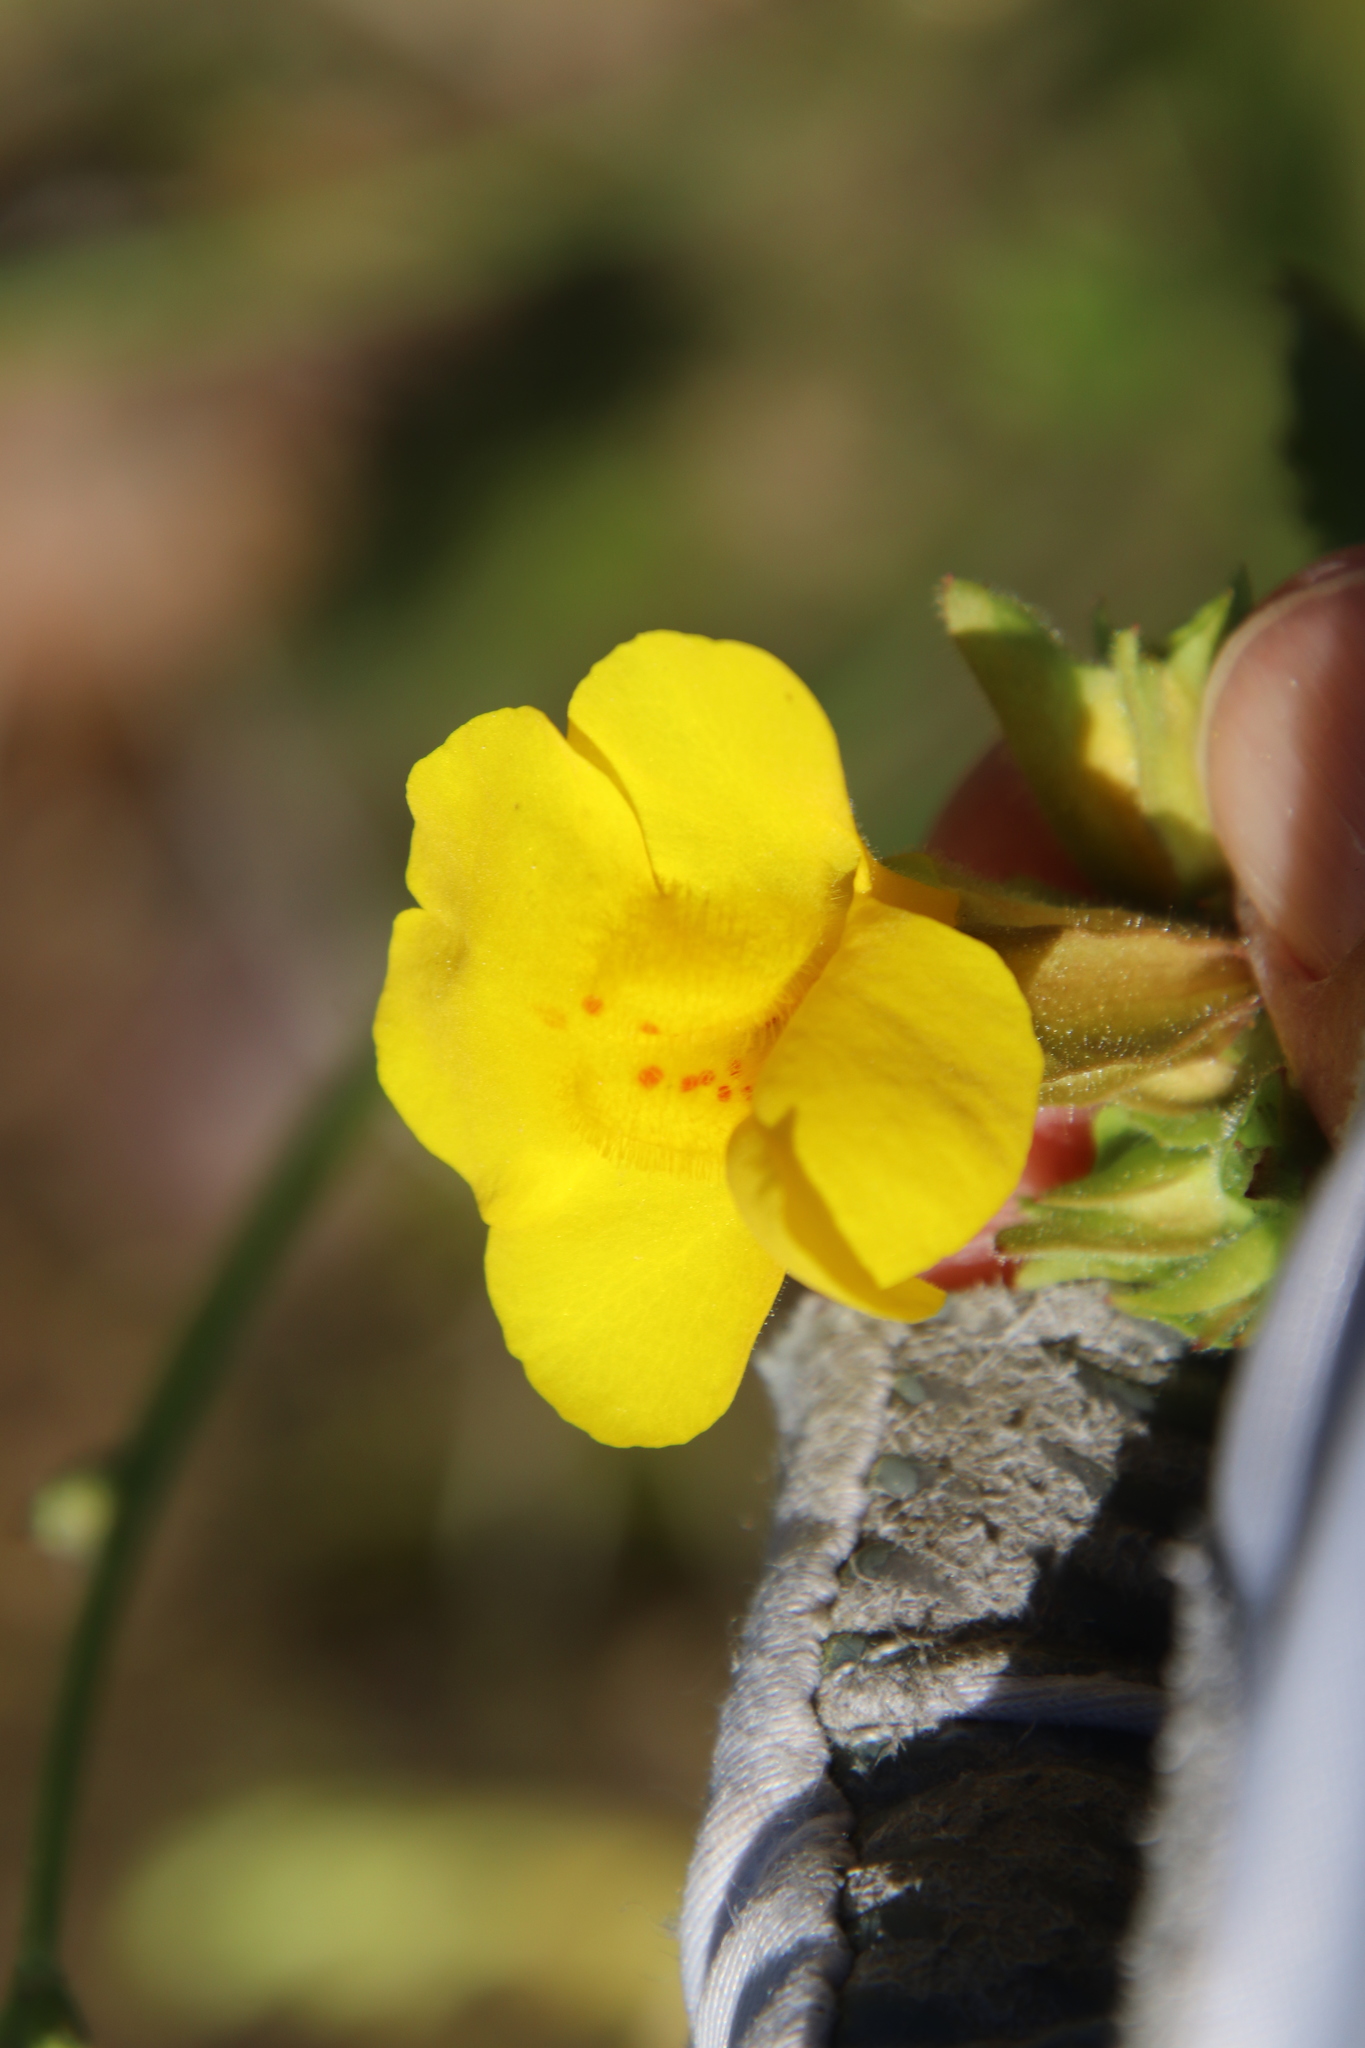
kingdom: Plantae
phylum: Tracheophyta
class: Magnoliopsida
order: Lamiales
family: Phrymaceae
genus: Erythranthe
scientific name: Erythranthe guttata
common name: Monkeyflower
